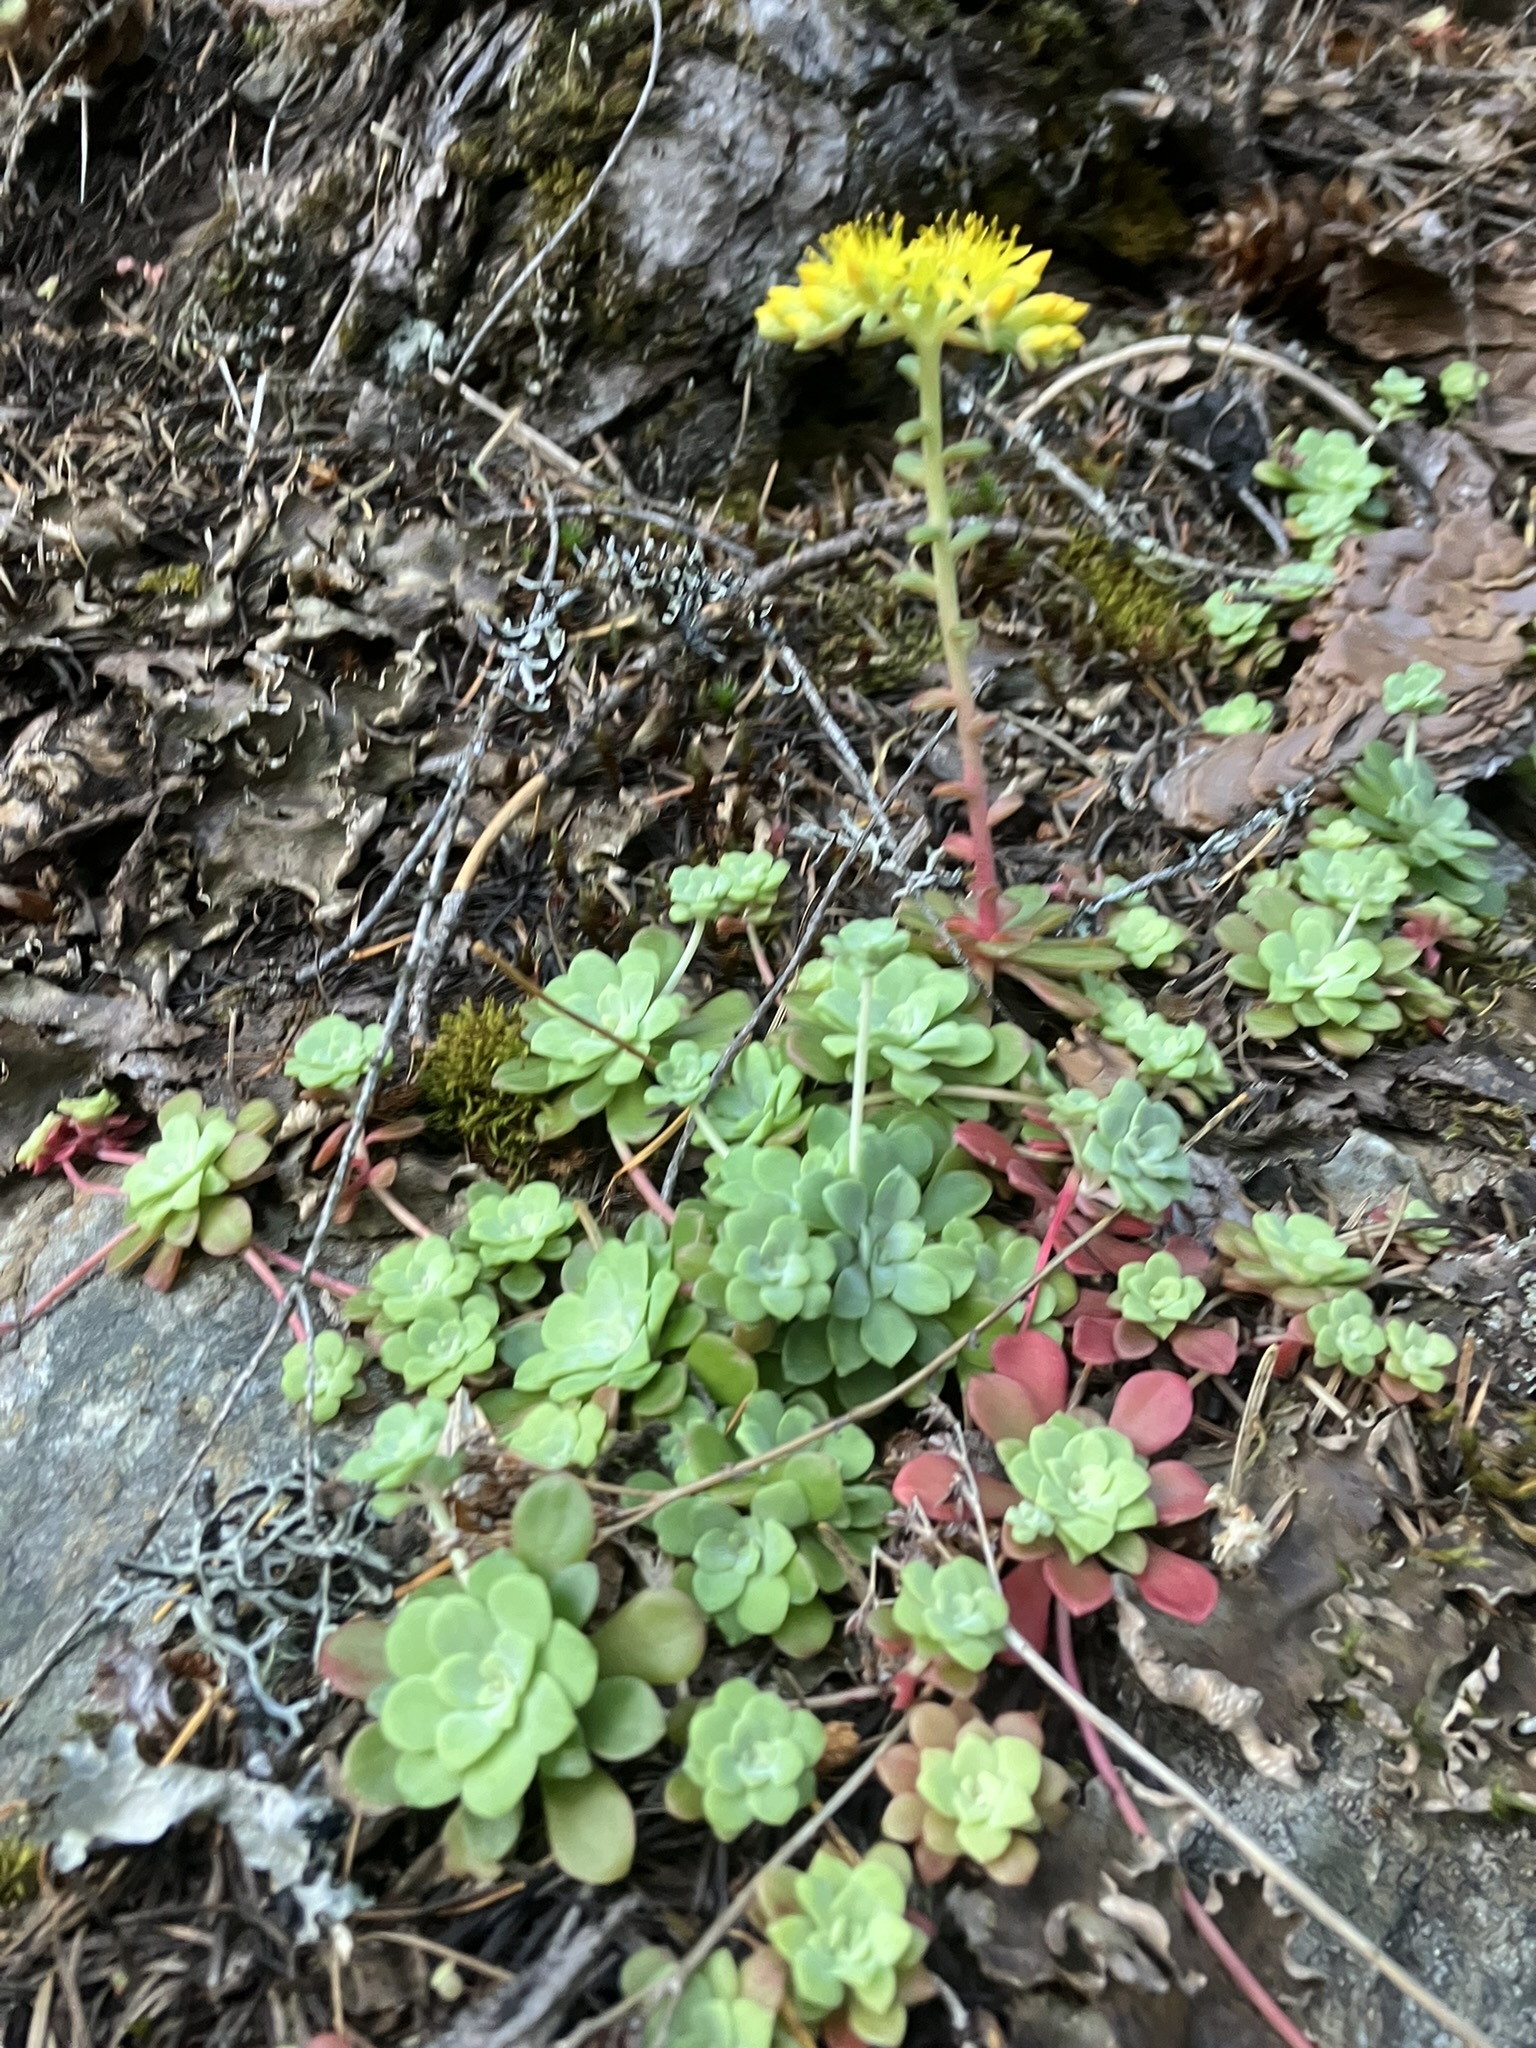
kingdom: Plantae
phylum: Tracheophyta
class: Magnoliopsida
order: Saxifragales
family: Crassulaceae
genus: Sedum
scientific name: Sedum spathulifolium
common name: Colorado stonecrop
